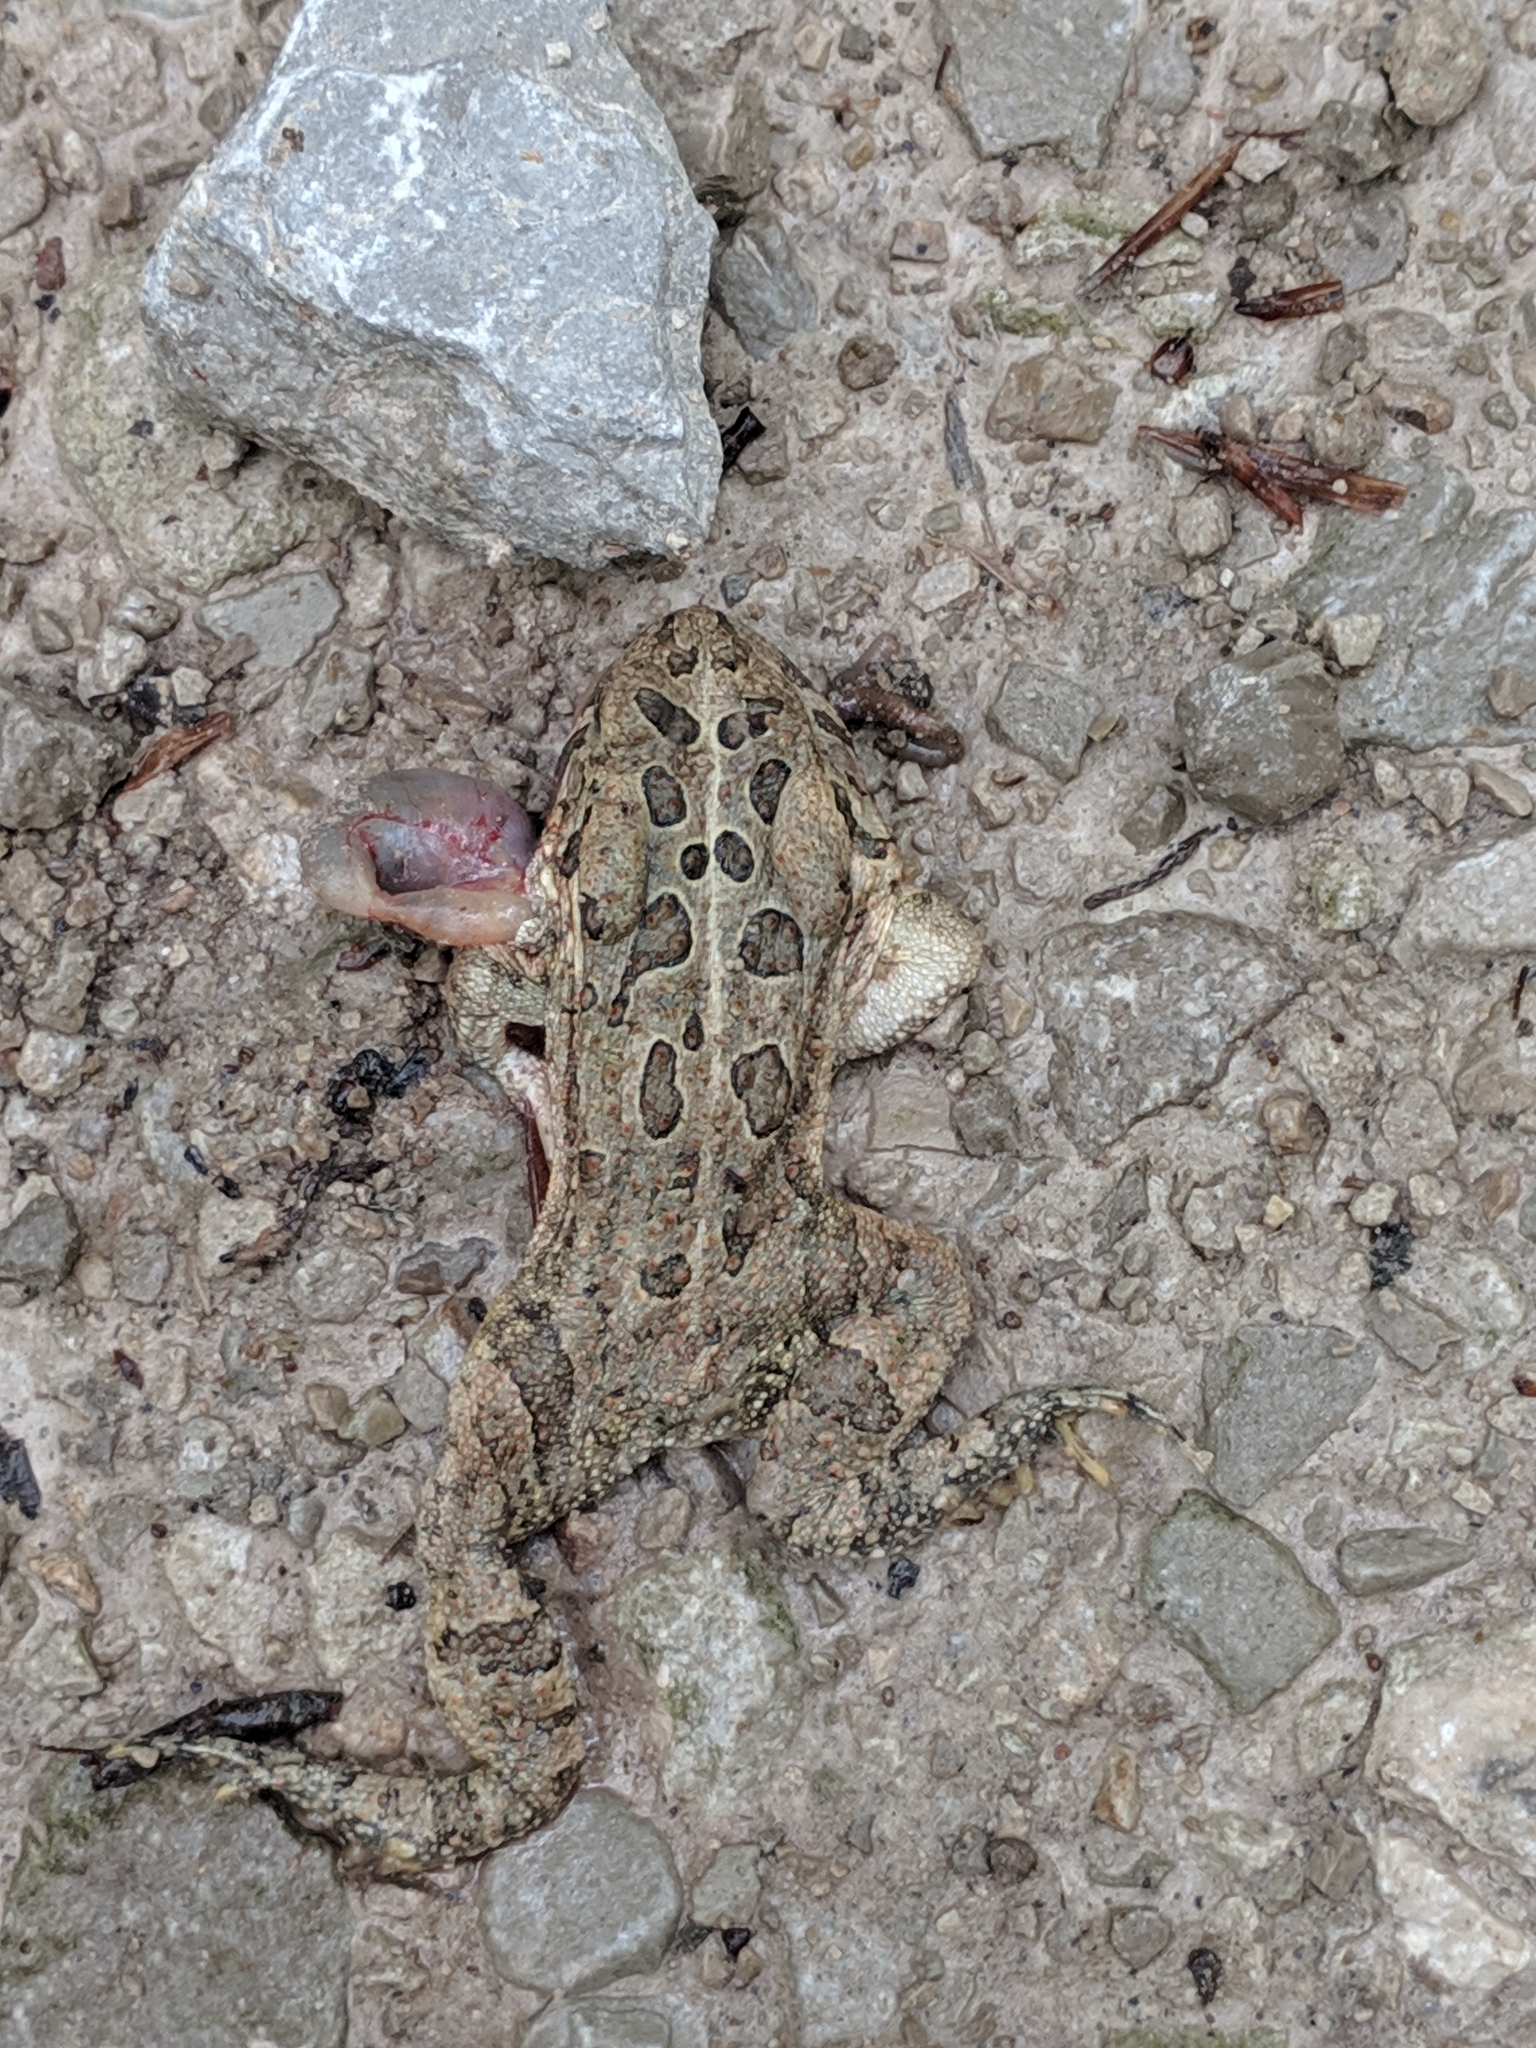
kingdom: Animalia
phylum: Chordata
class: Amphibia
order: Anura
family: Bufonidae
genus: Anaxyrus
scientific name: Anaxyrus americanus
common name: American toad
